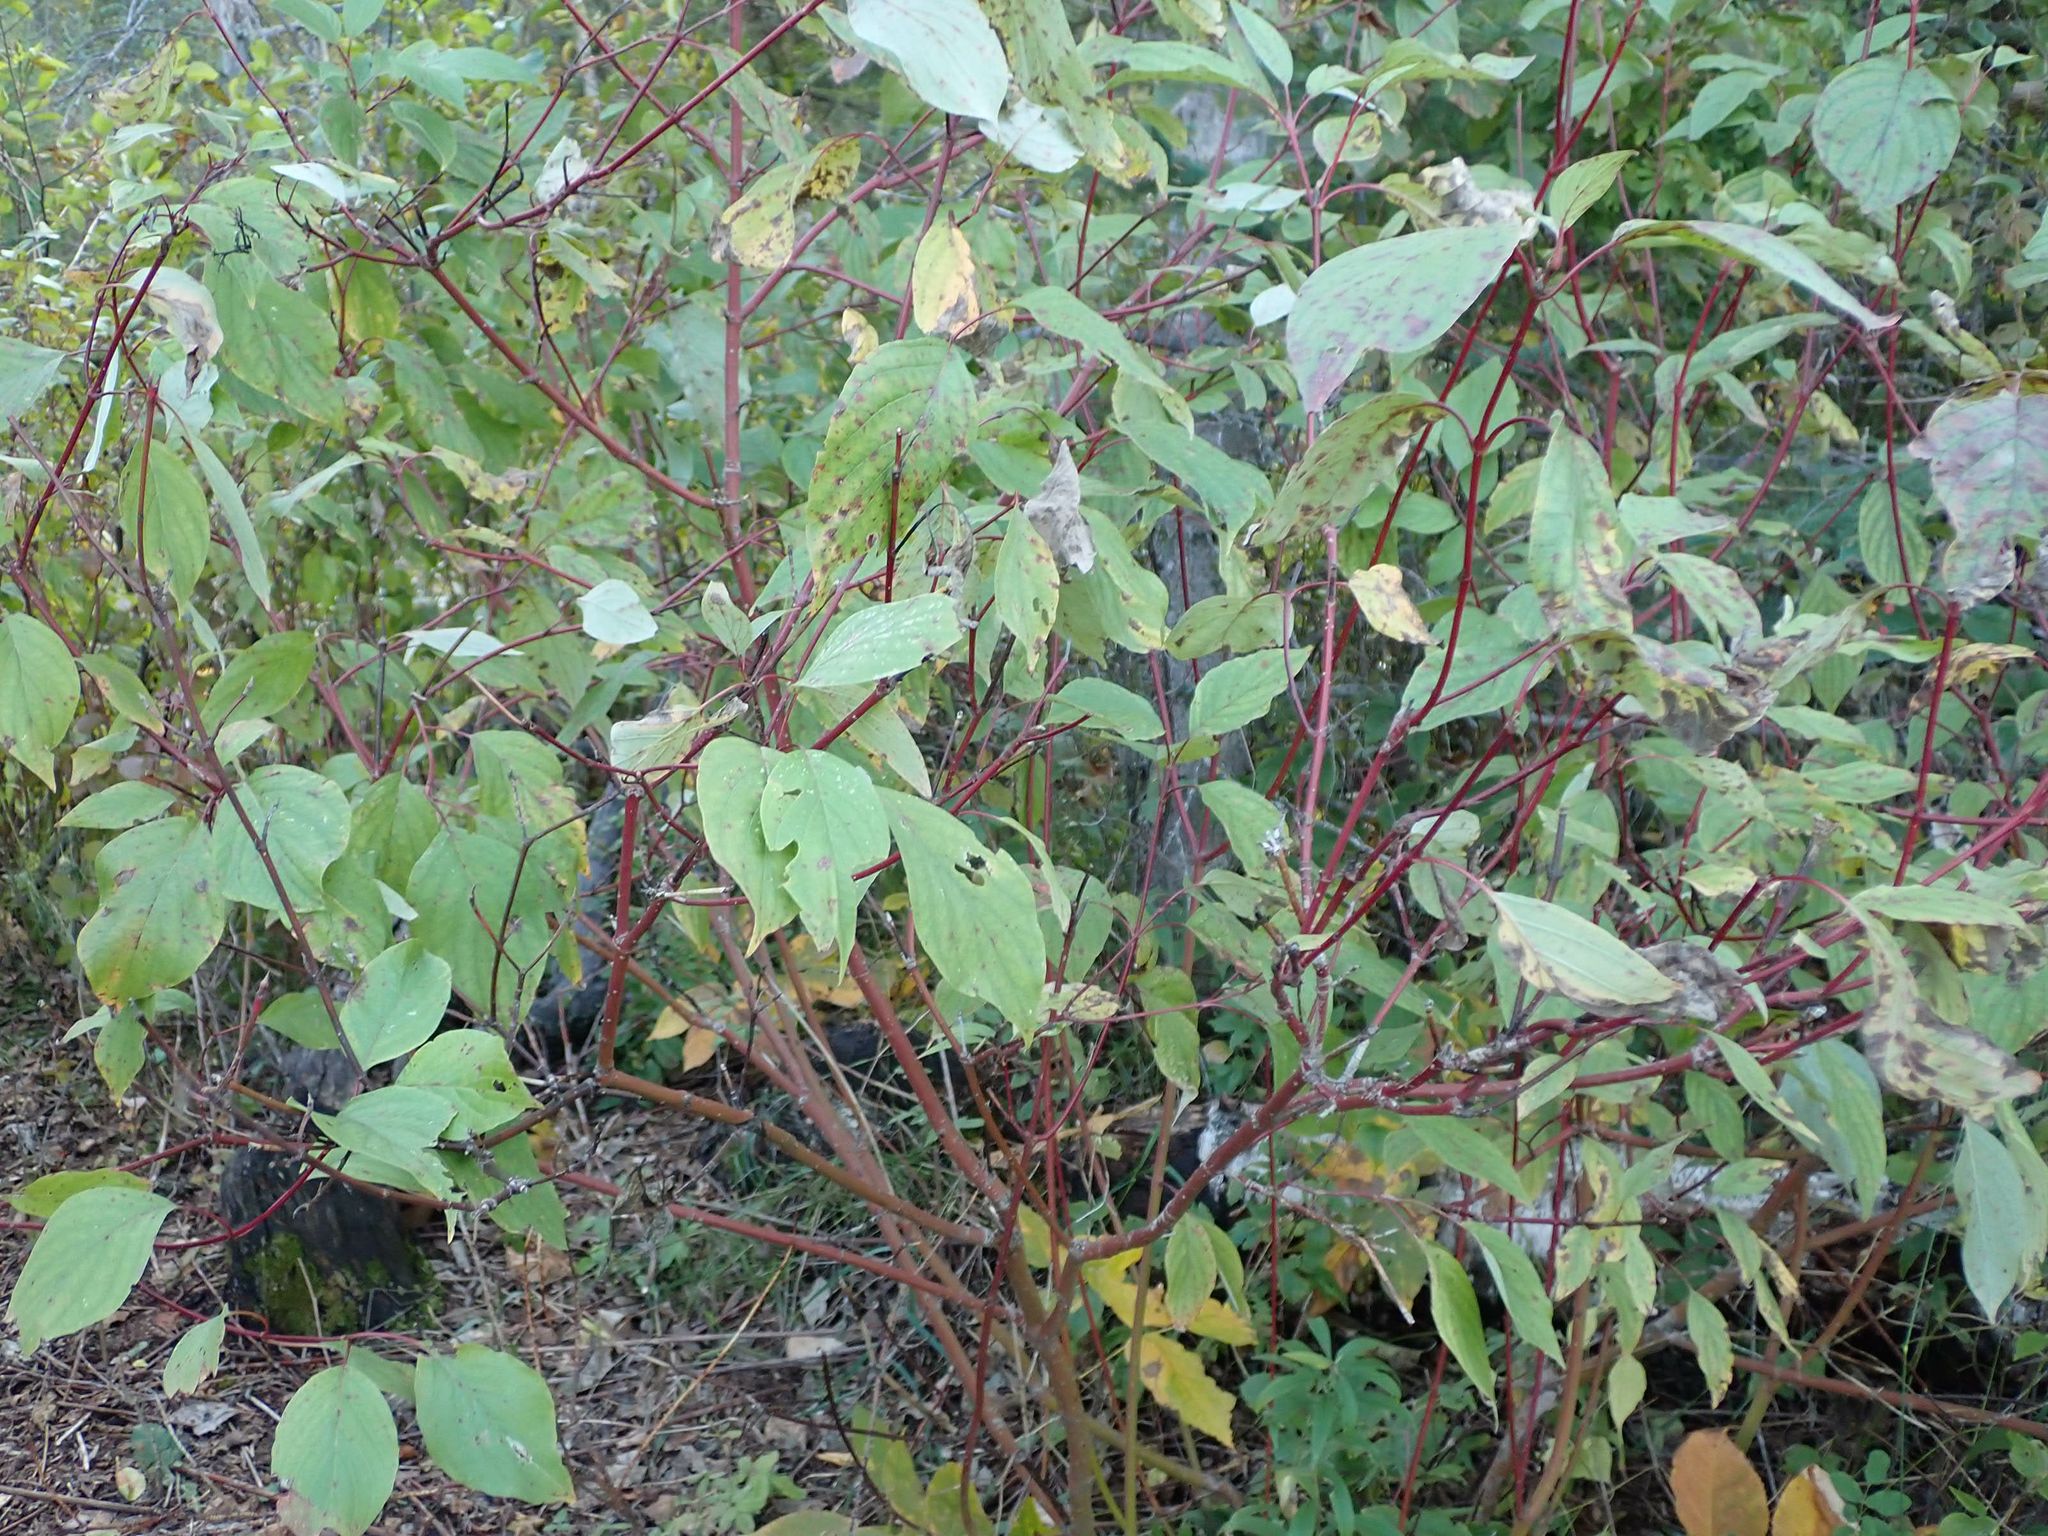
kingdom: Plantae
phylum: Tracheophyta
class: Magnoliopsida
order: Cornales
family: Cornaceae
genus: Cornus
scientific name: Cornus sericea
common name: Red-osier dogwood
